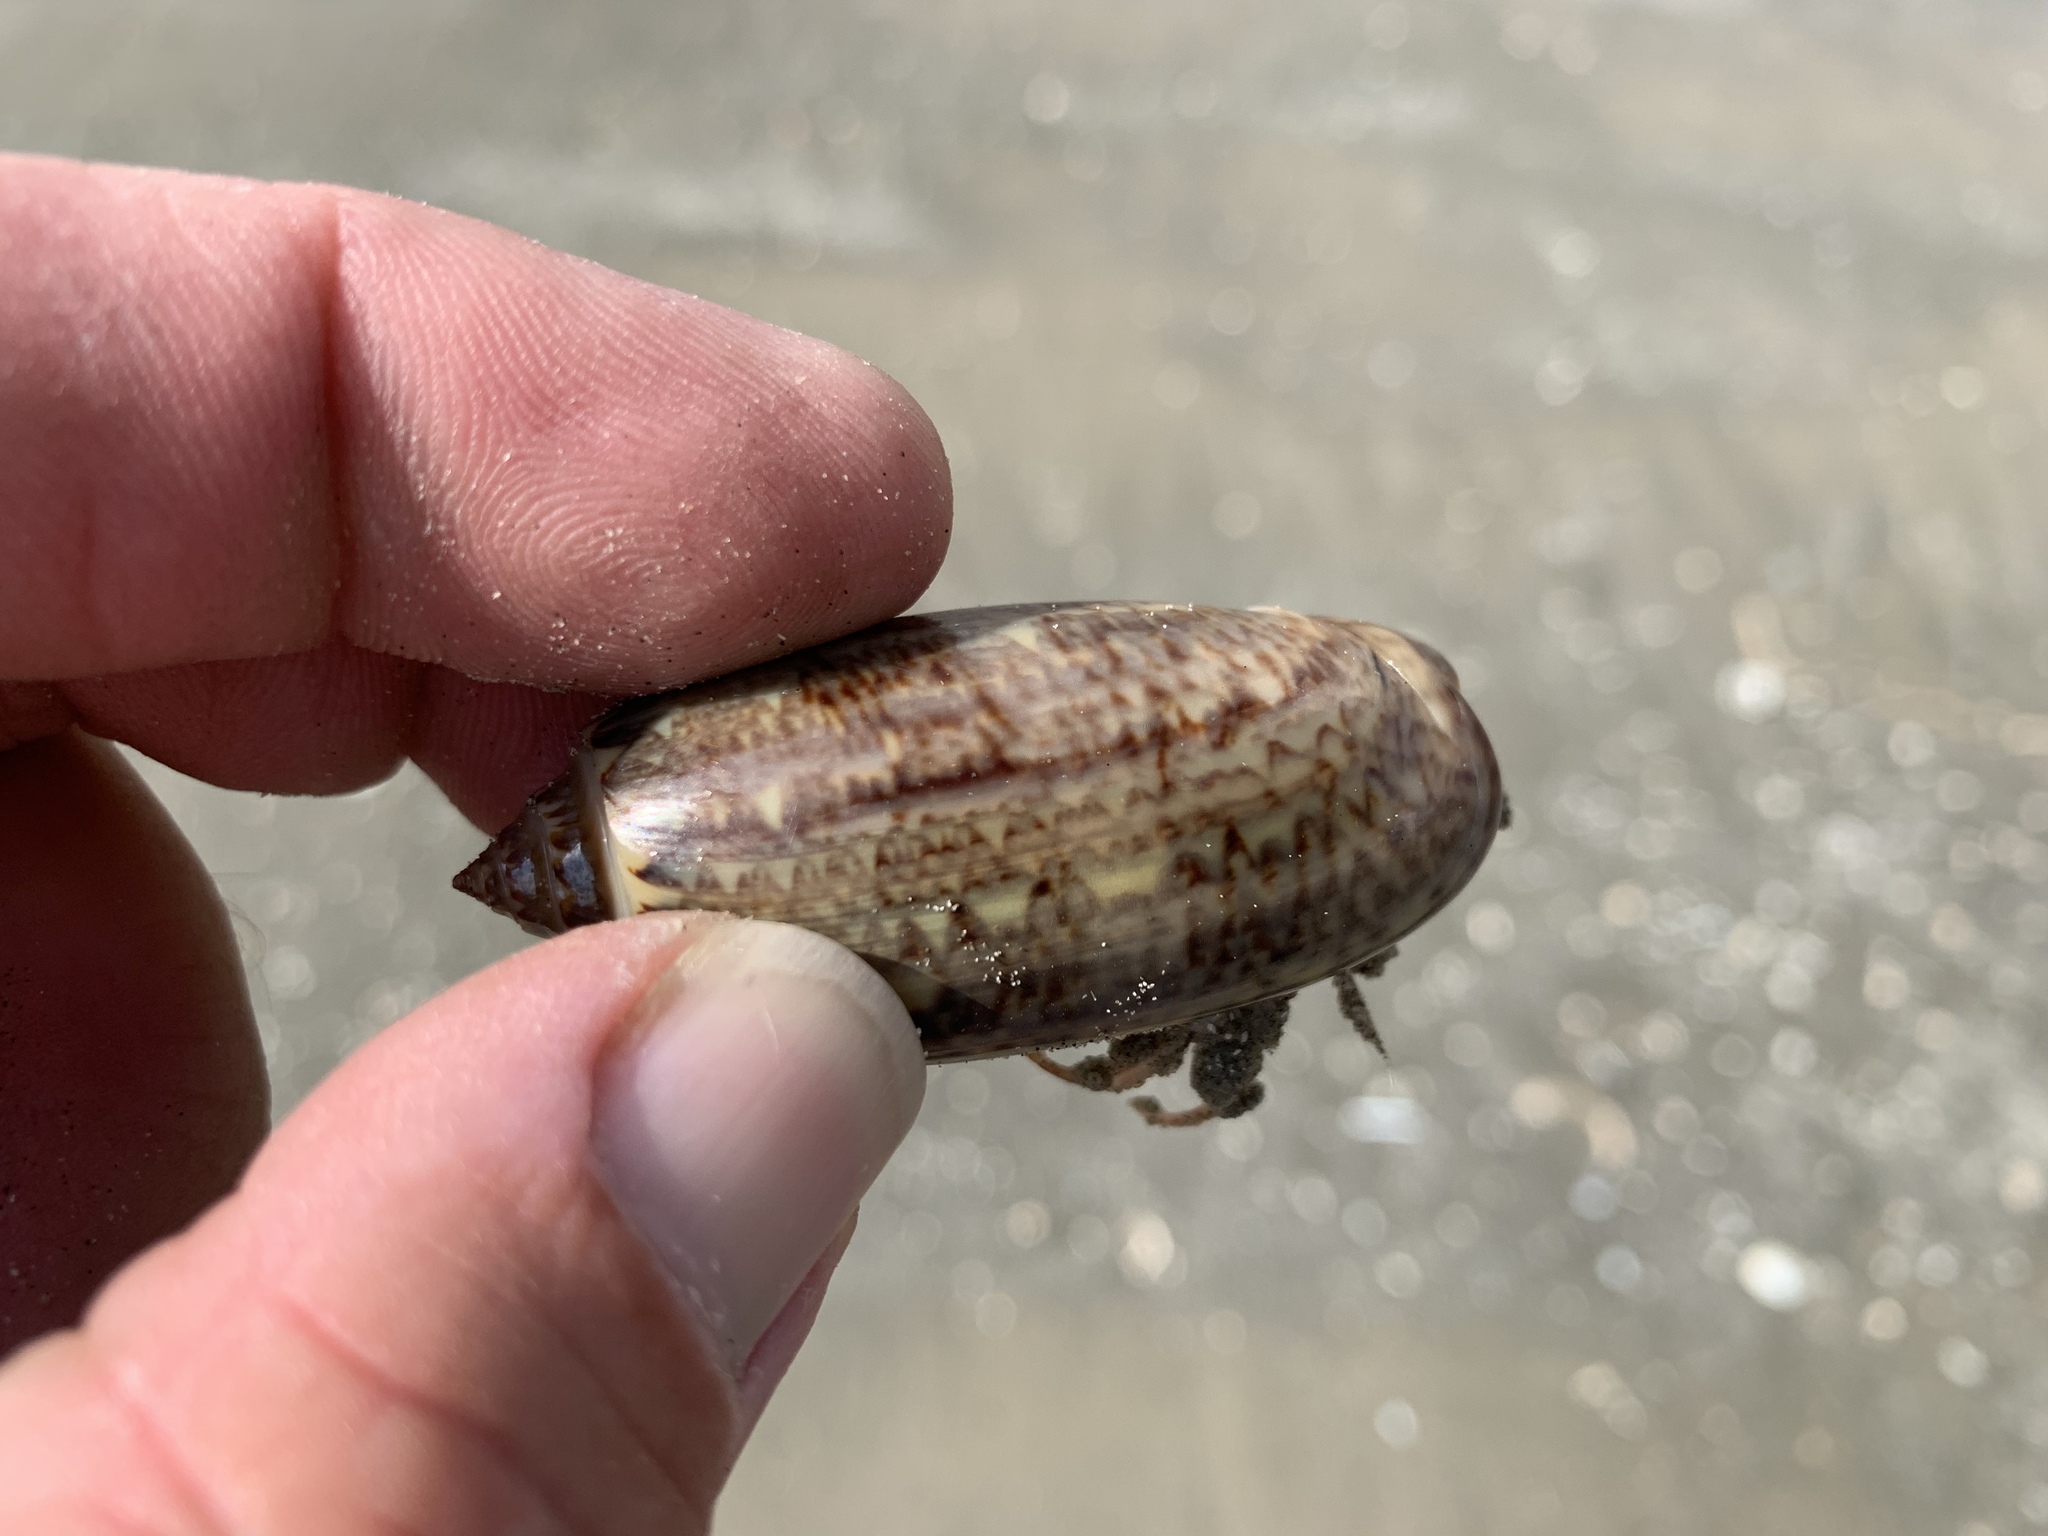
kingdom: Animalia
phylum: Arthropoda
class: Malacostraca
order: Decapoda
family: Diogenidae
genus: Isocheles
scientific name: Isocheles wurdemanni
